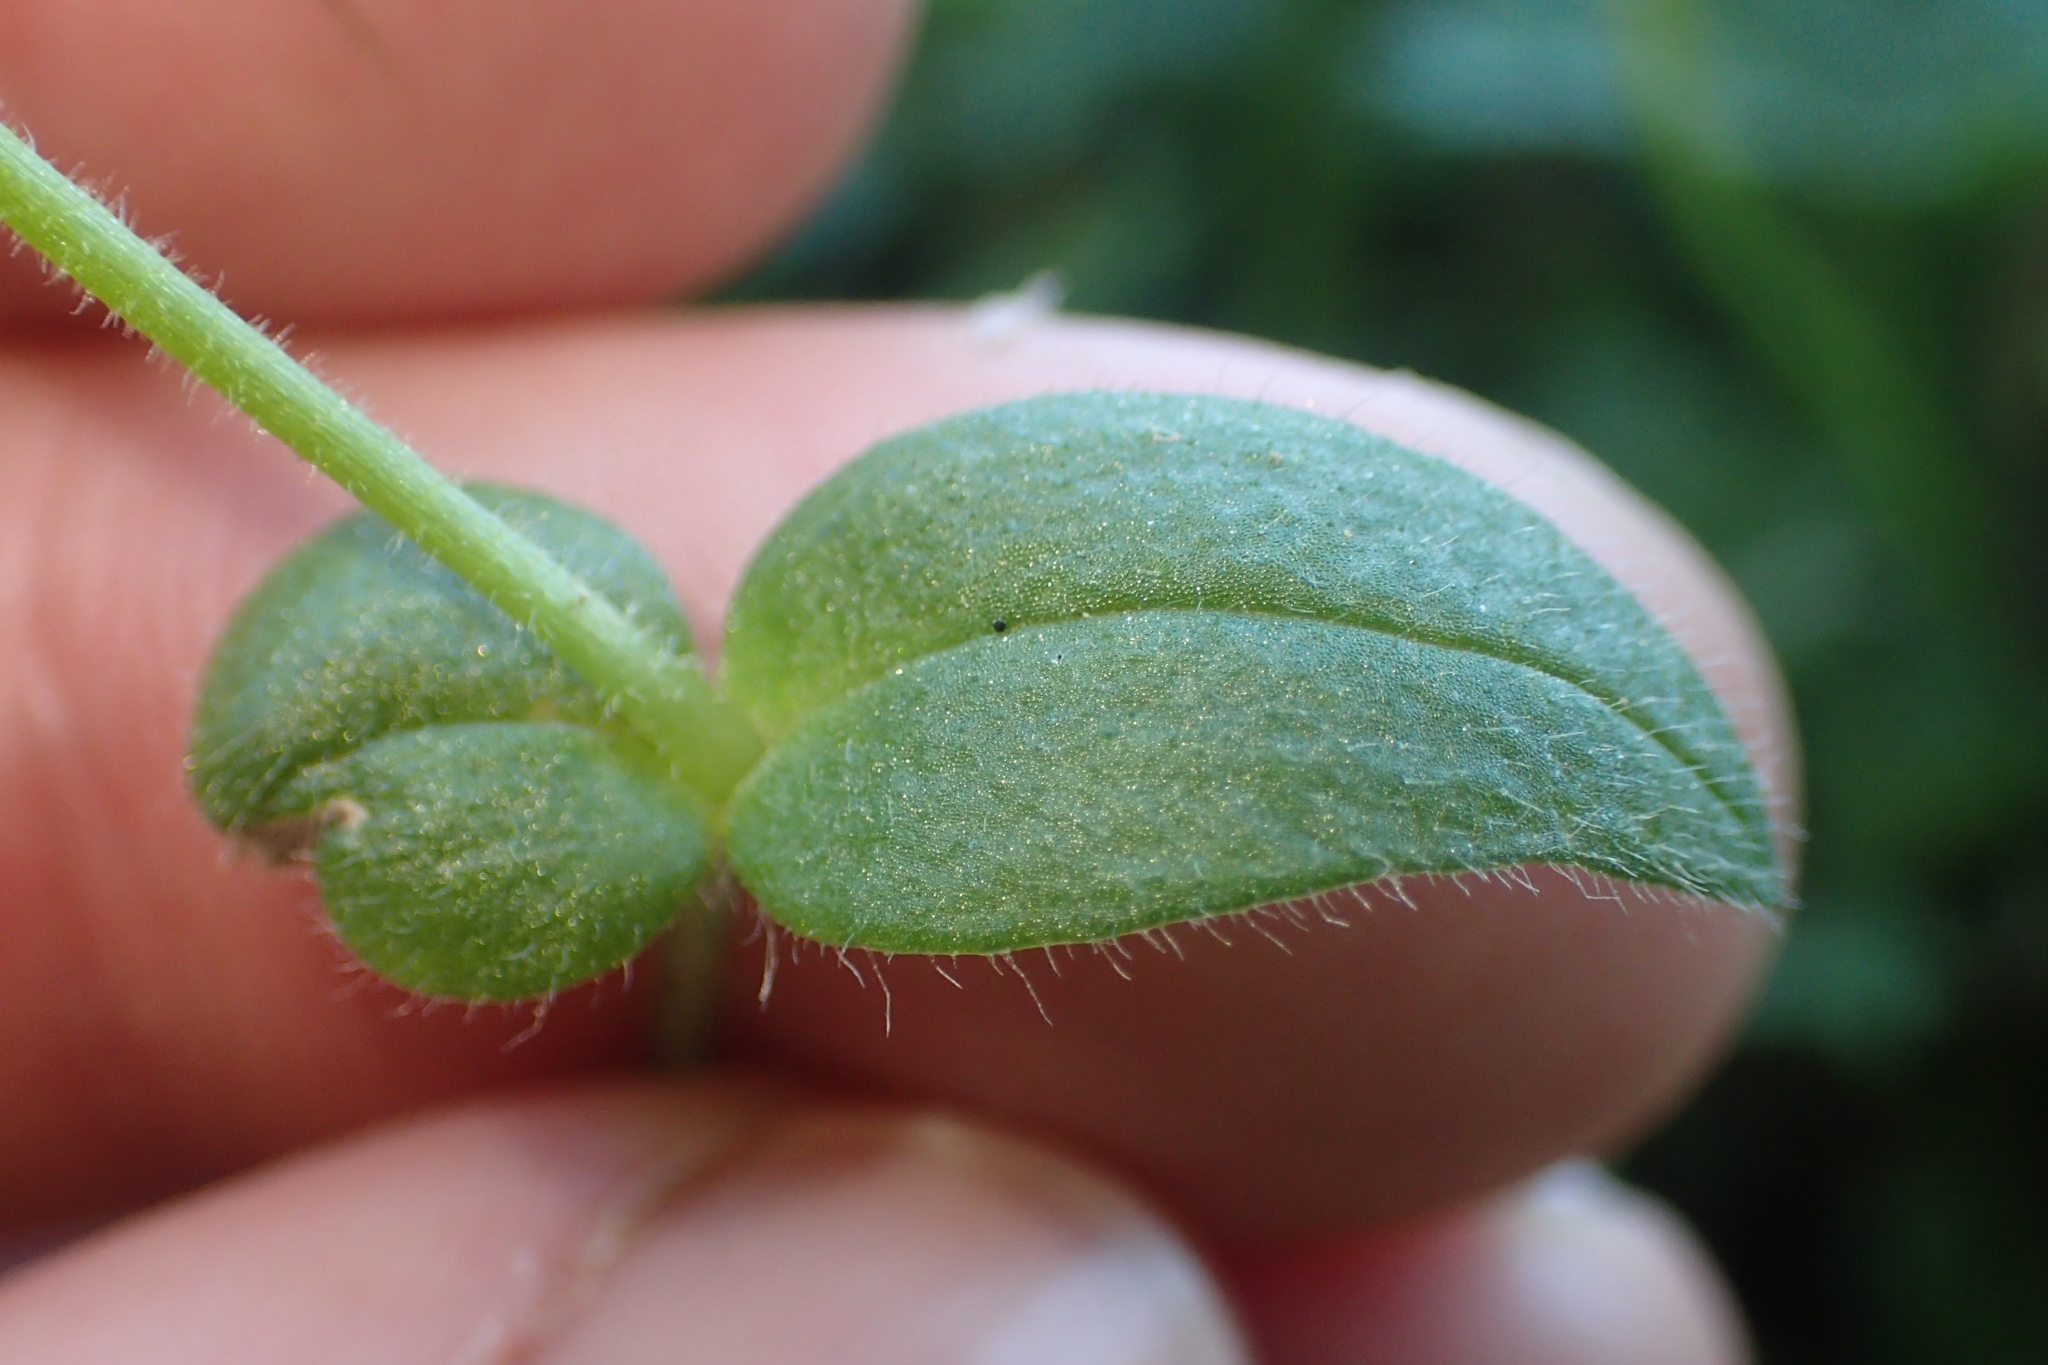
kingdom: Plantae
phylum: Tracheophyta
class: Magnoliopsida
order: Caryophyllales
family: Caryophyllaceae
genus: Cerastium
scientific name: Cerastium fontanum
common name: Common mouse-ear
